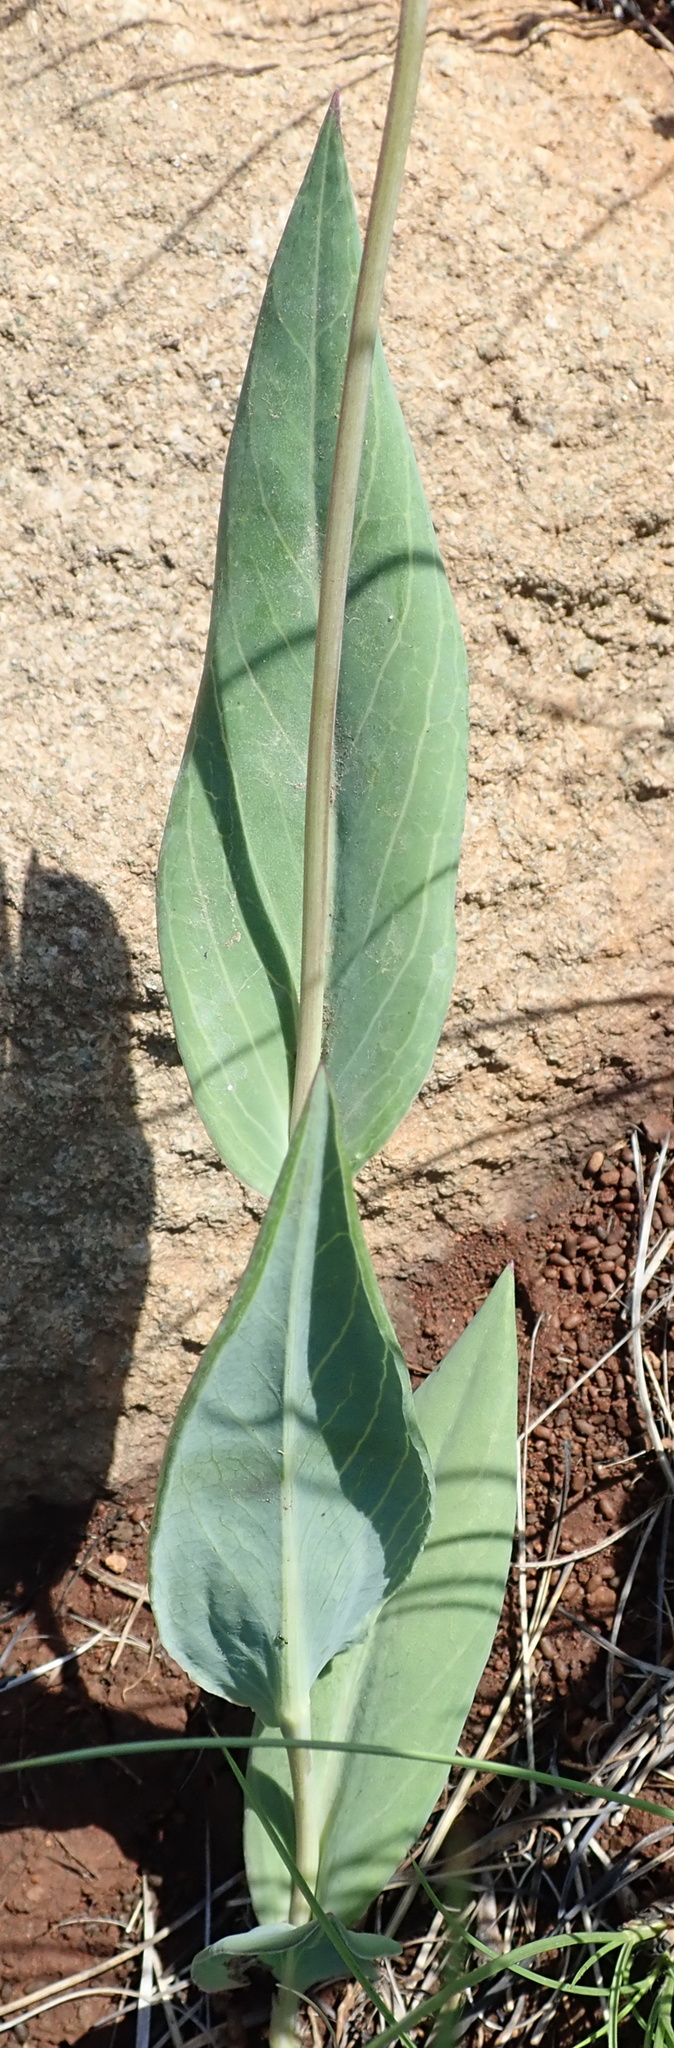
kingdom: Plantae
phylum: Tracheophyta
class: Magnoliopsida
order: Asterales
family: Asteraceae
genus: Senecio
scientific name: Senecio glaberrimus
